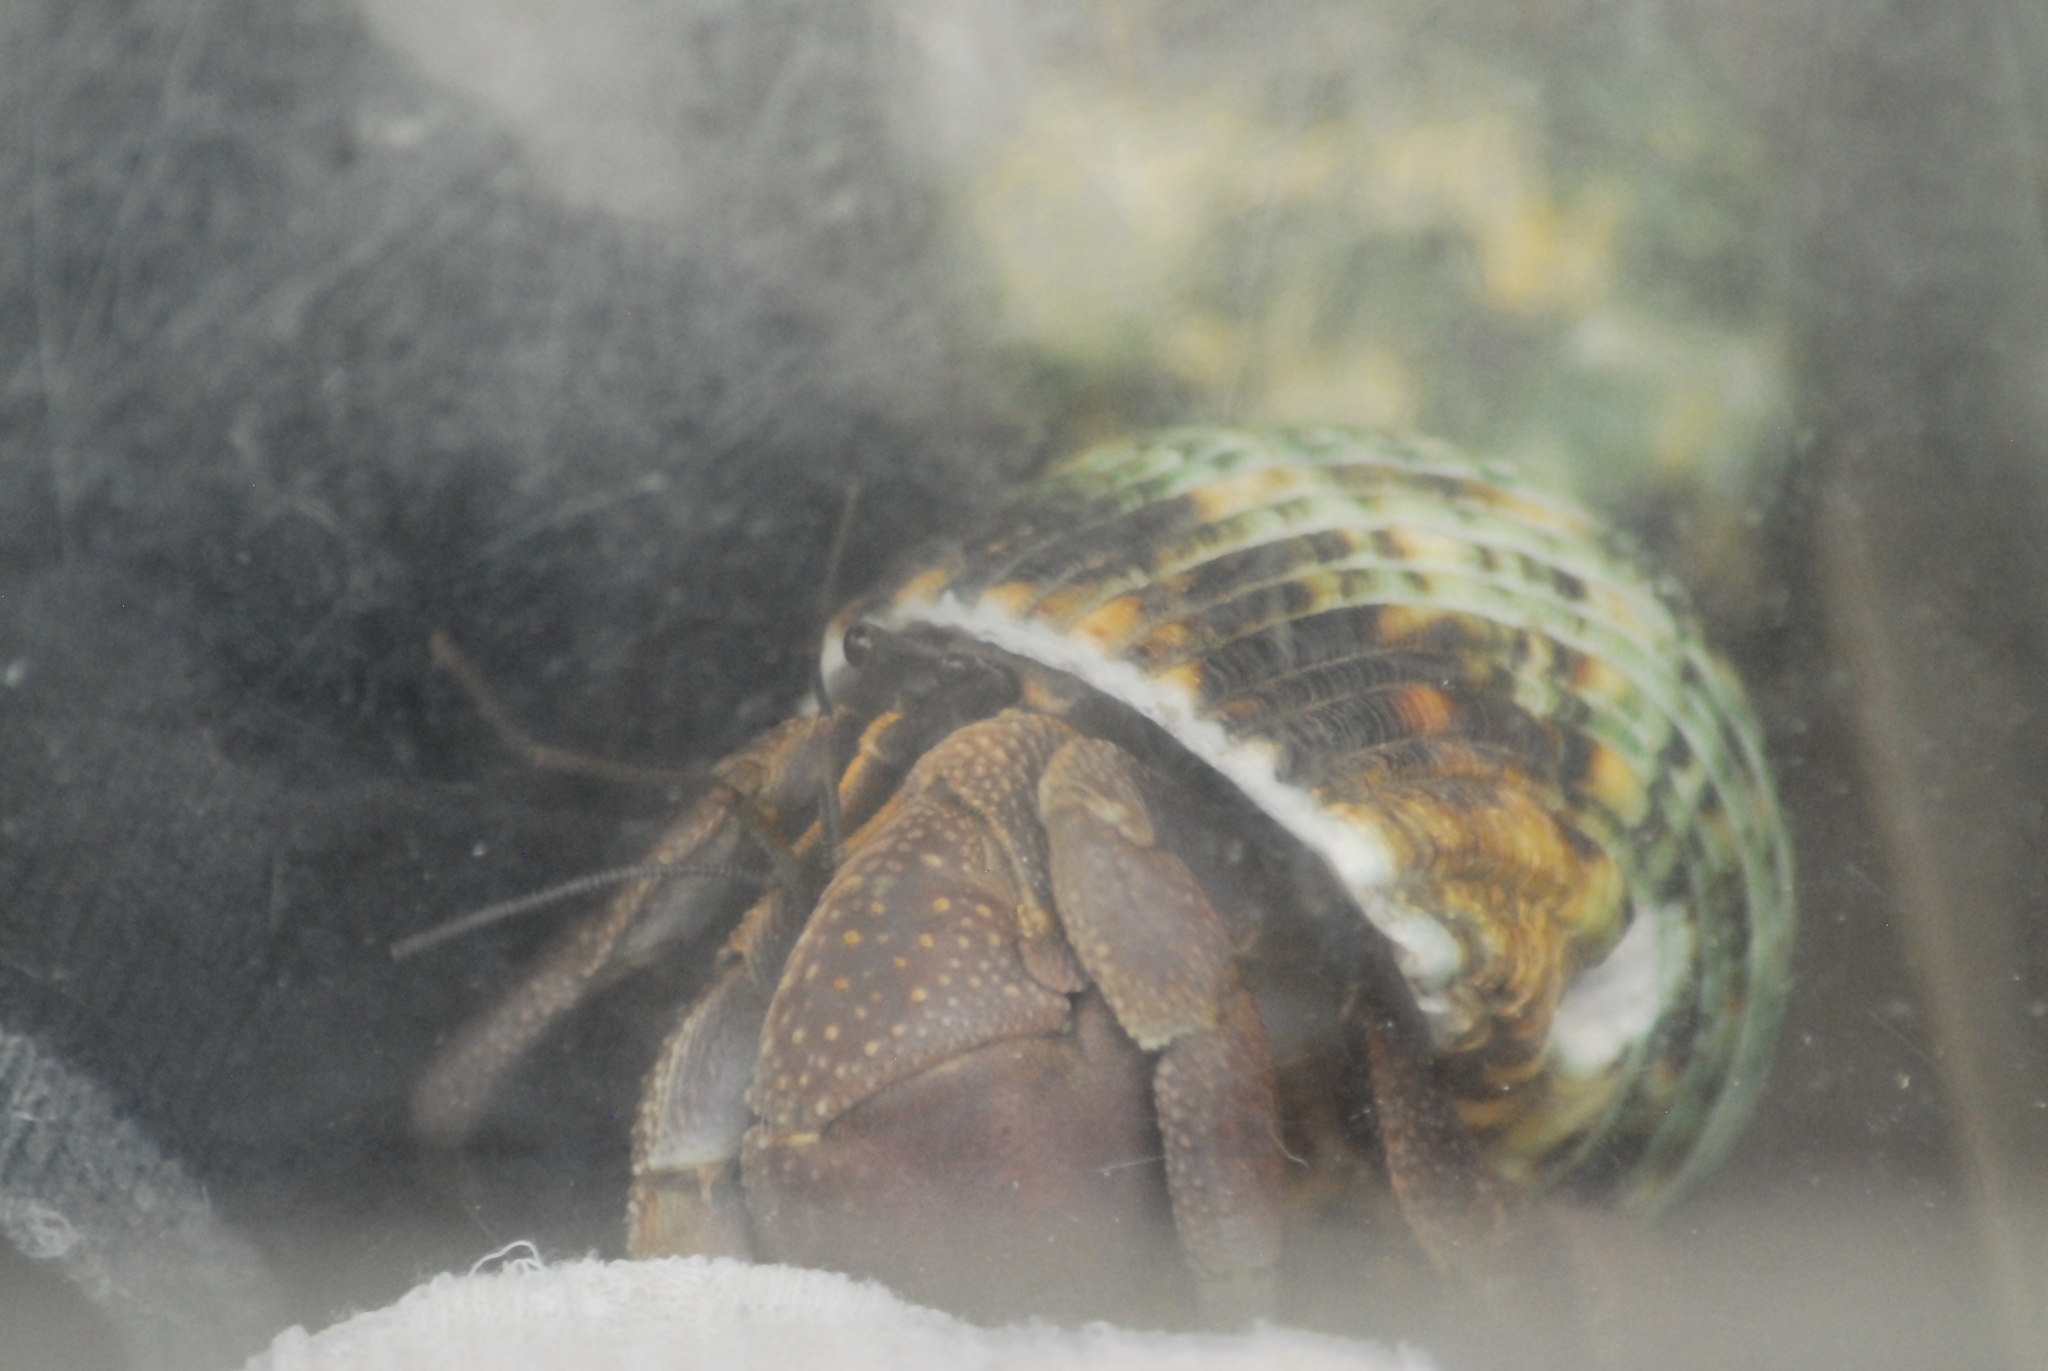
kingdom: Animalia
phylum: Arthropoda
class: Malacostraca
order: Decapoda
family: Coenobitidae
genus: Coenobita
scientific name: Coenobita brevimanus
